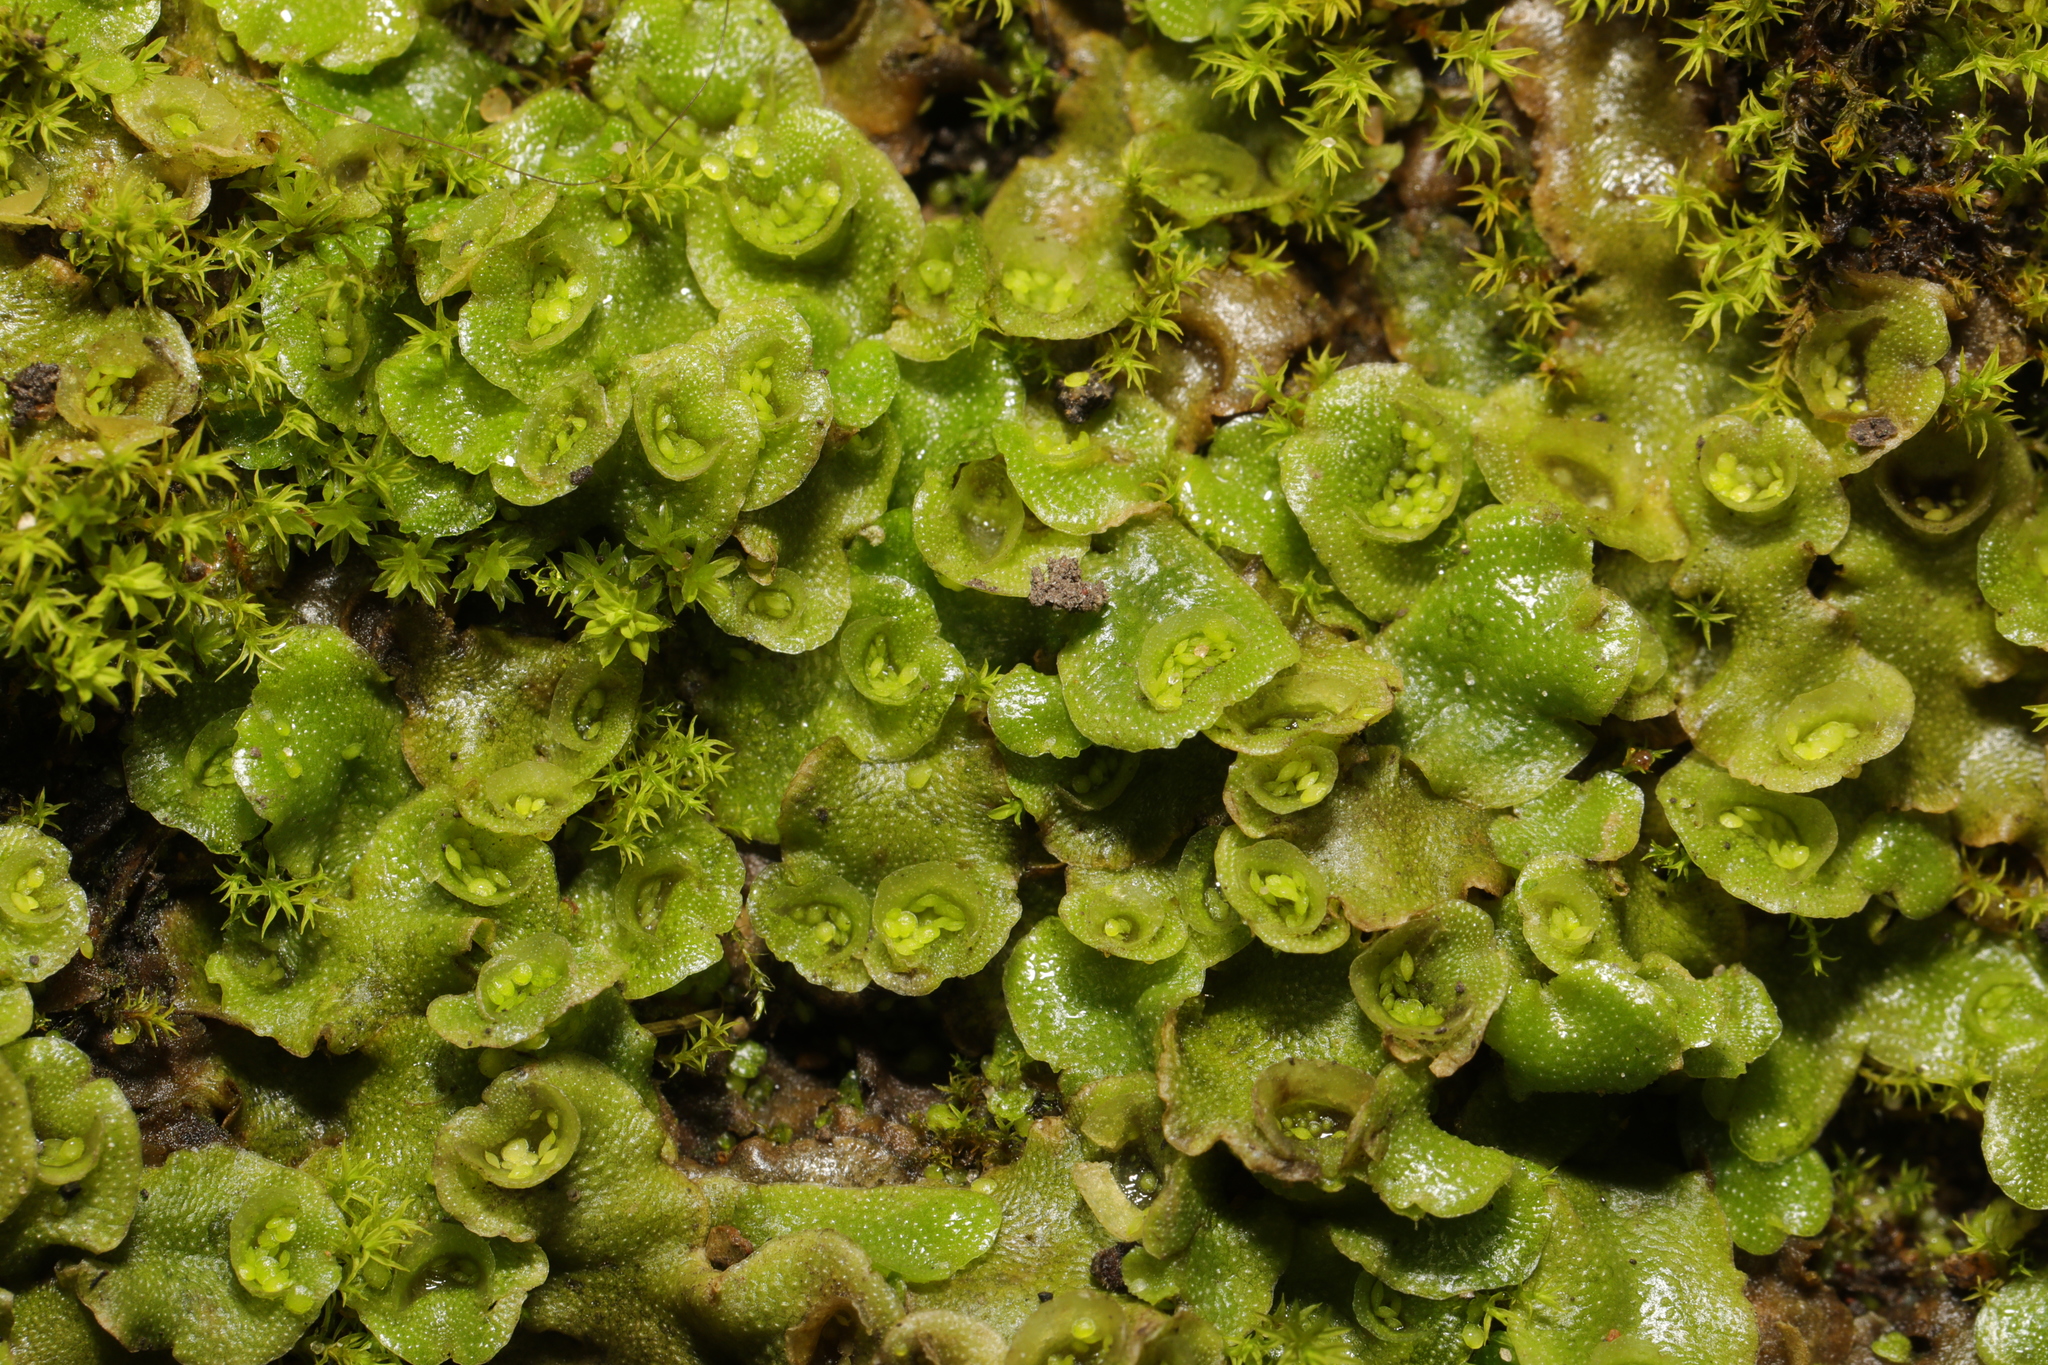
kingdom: Plantae
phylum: Marchantiophyta
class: Marchantiopsida
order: Lunulariales
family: Lunulariaceae
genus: Lunularia
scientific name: Lunularia cruciata
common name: Crescent-cup liverwort
